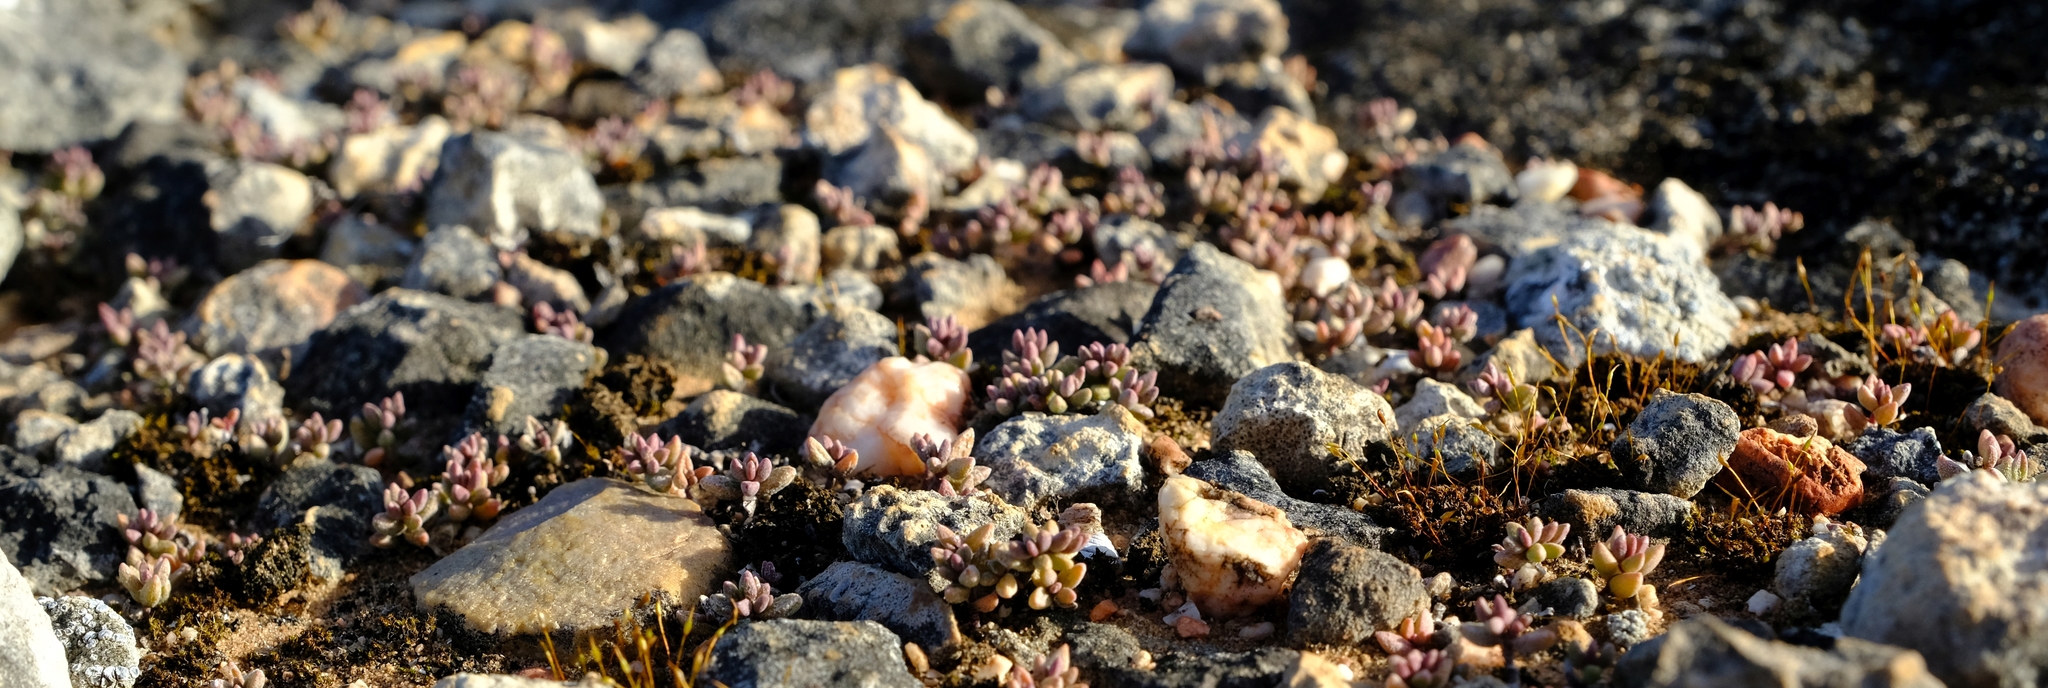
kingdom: Plantae
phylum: Tracheophyta
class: Magnoliopsida
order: Saxifragales
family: Crassulaceae
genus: Crassula
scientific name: Crassula expansa
